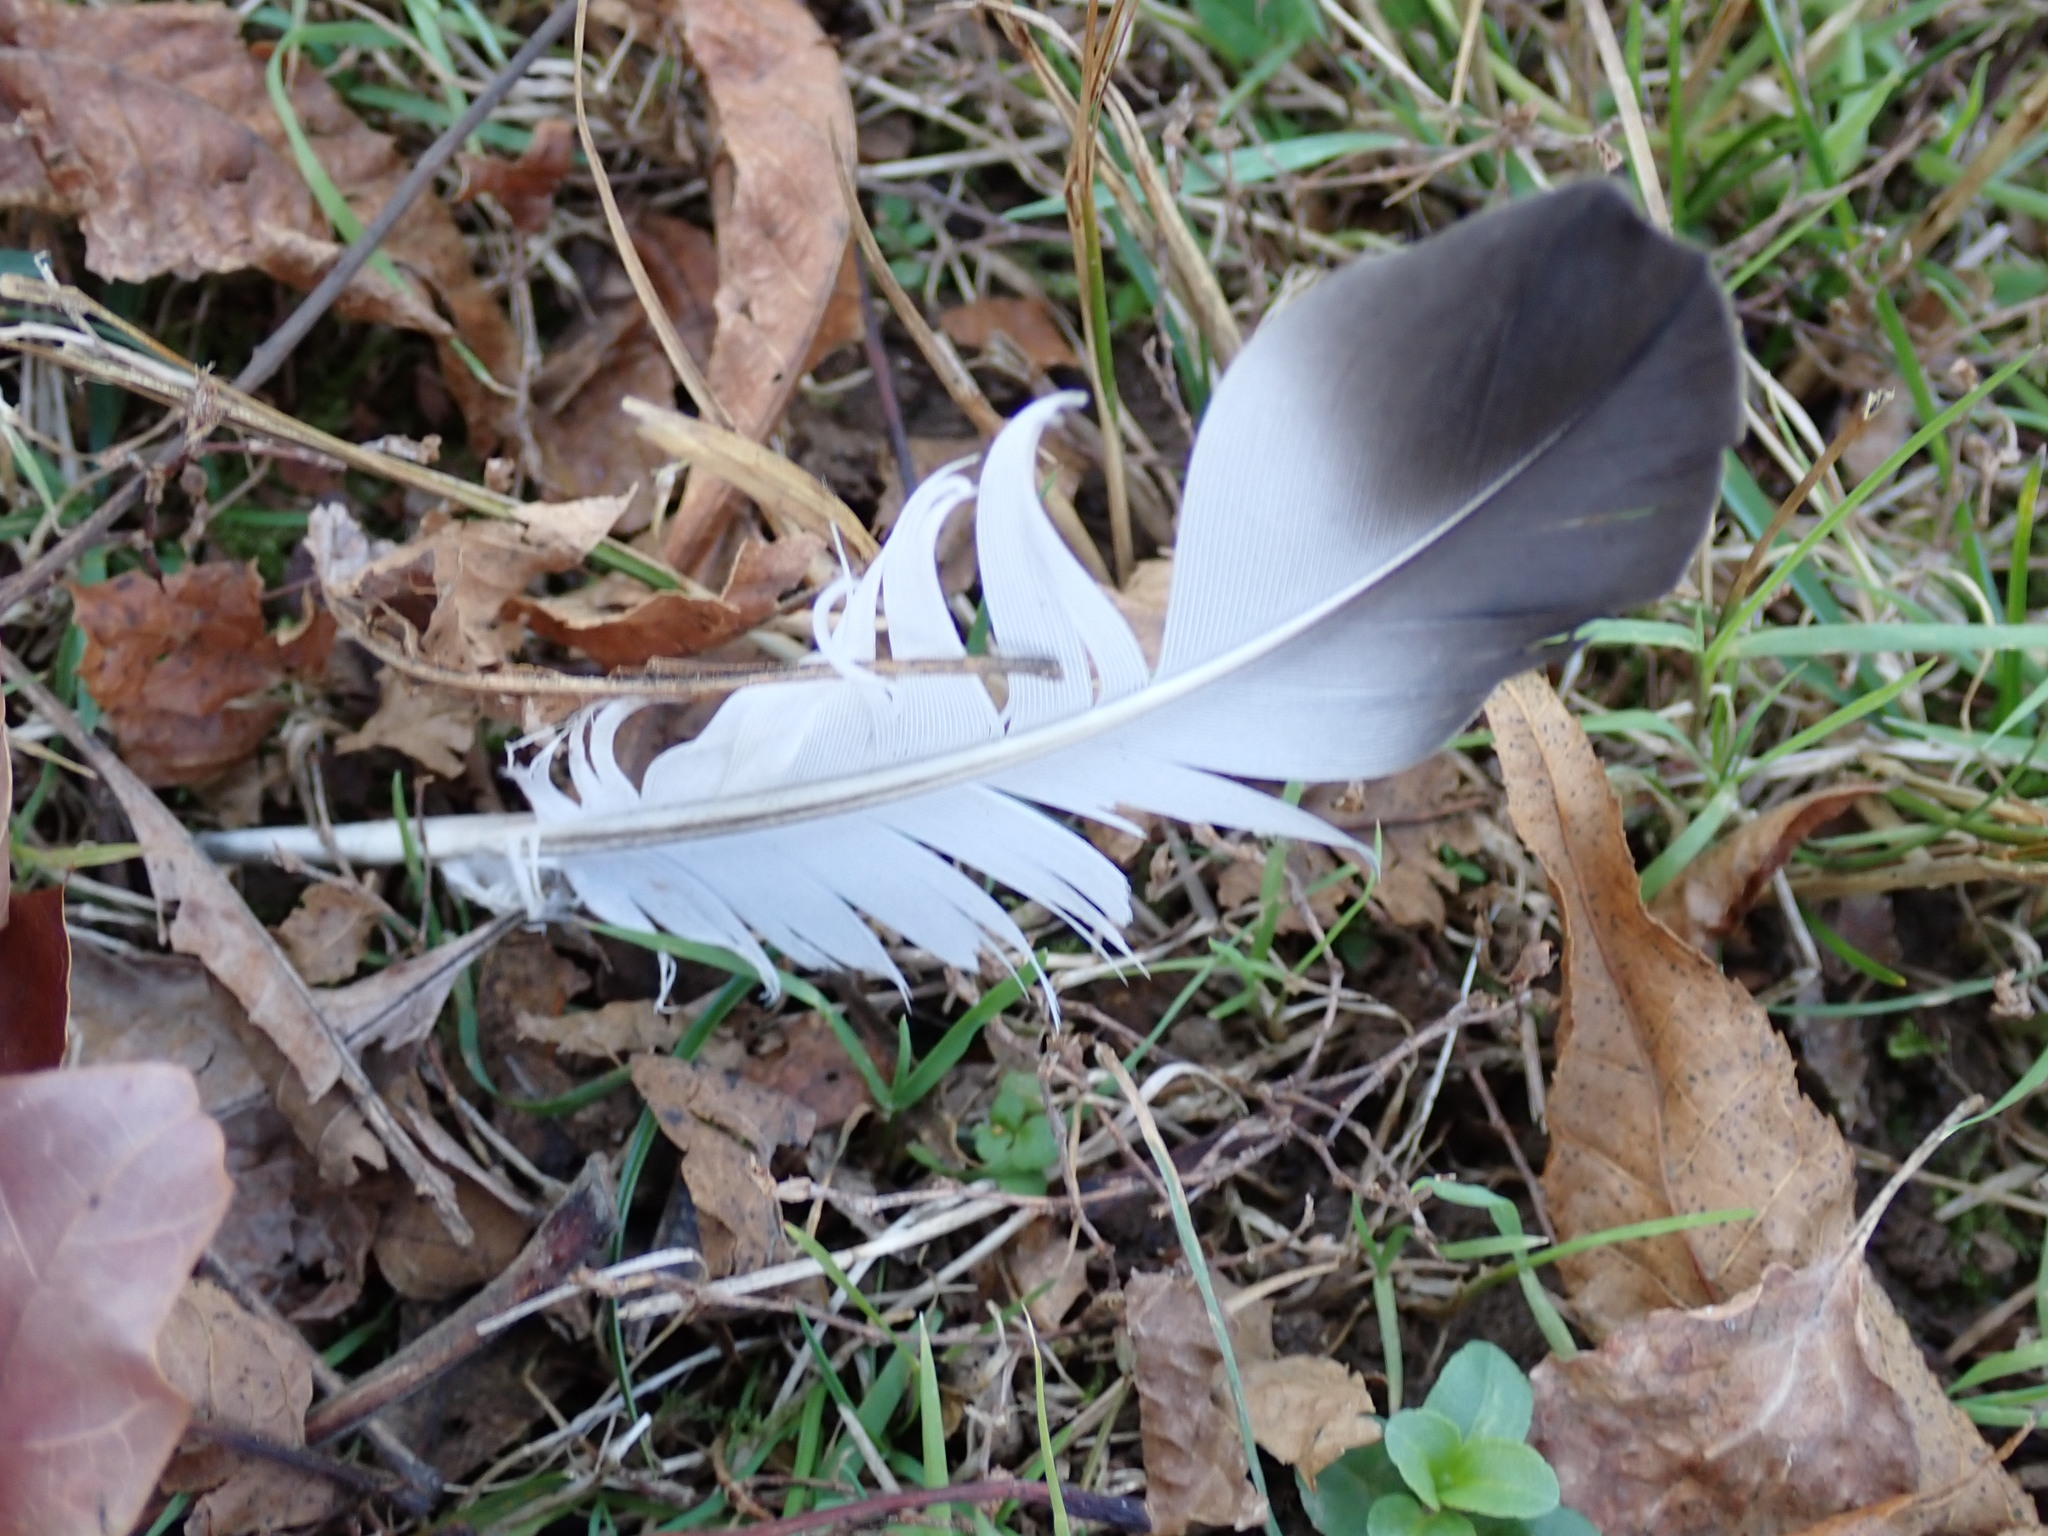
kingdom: Animalia
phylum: Chordata
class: Aves
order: Columbiformes
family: Columbidae
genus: Columba
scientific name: Columba livia
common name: Rock pigeon
